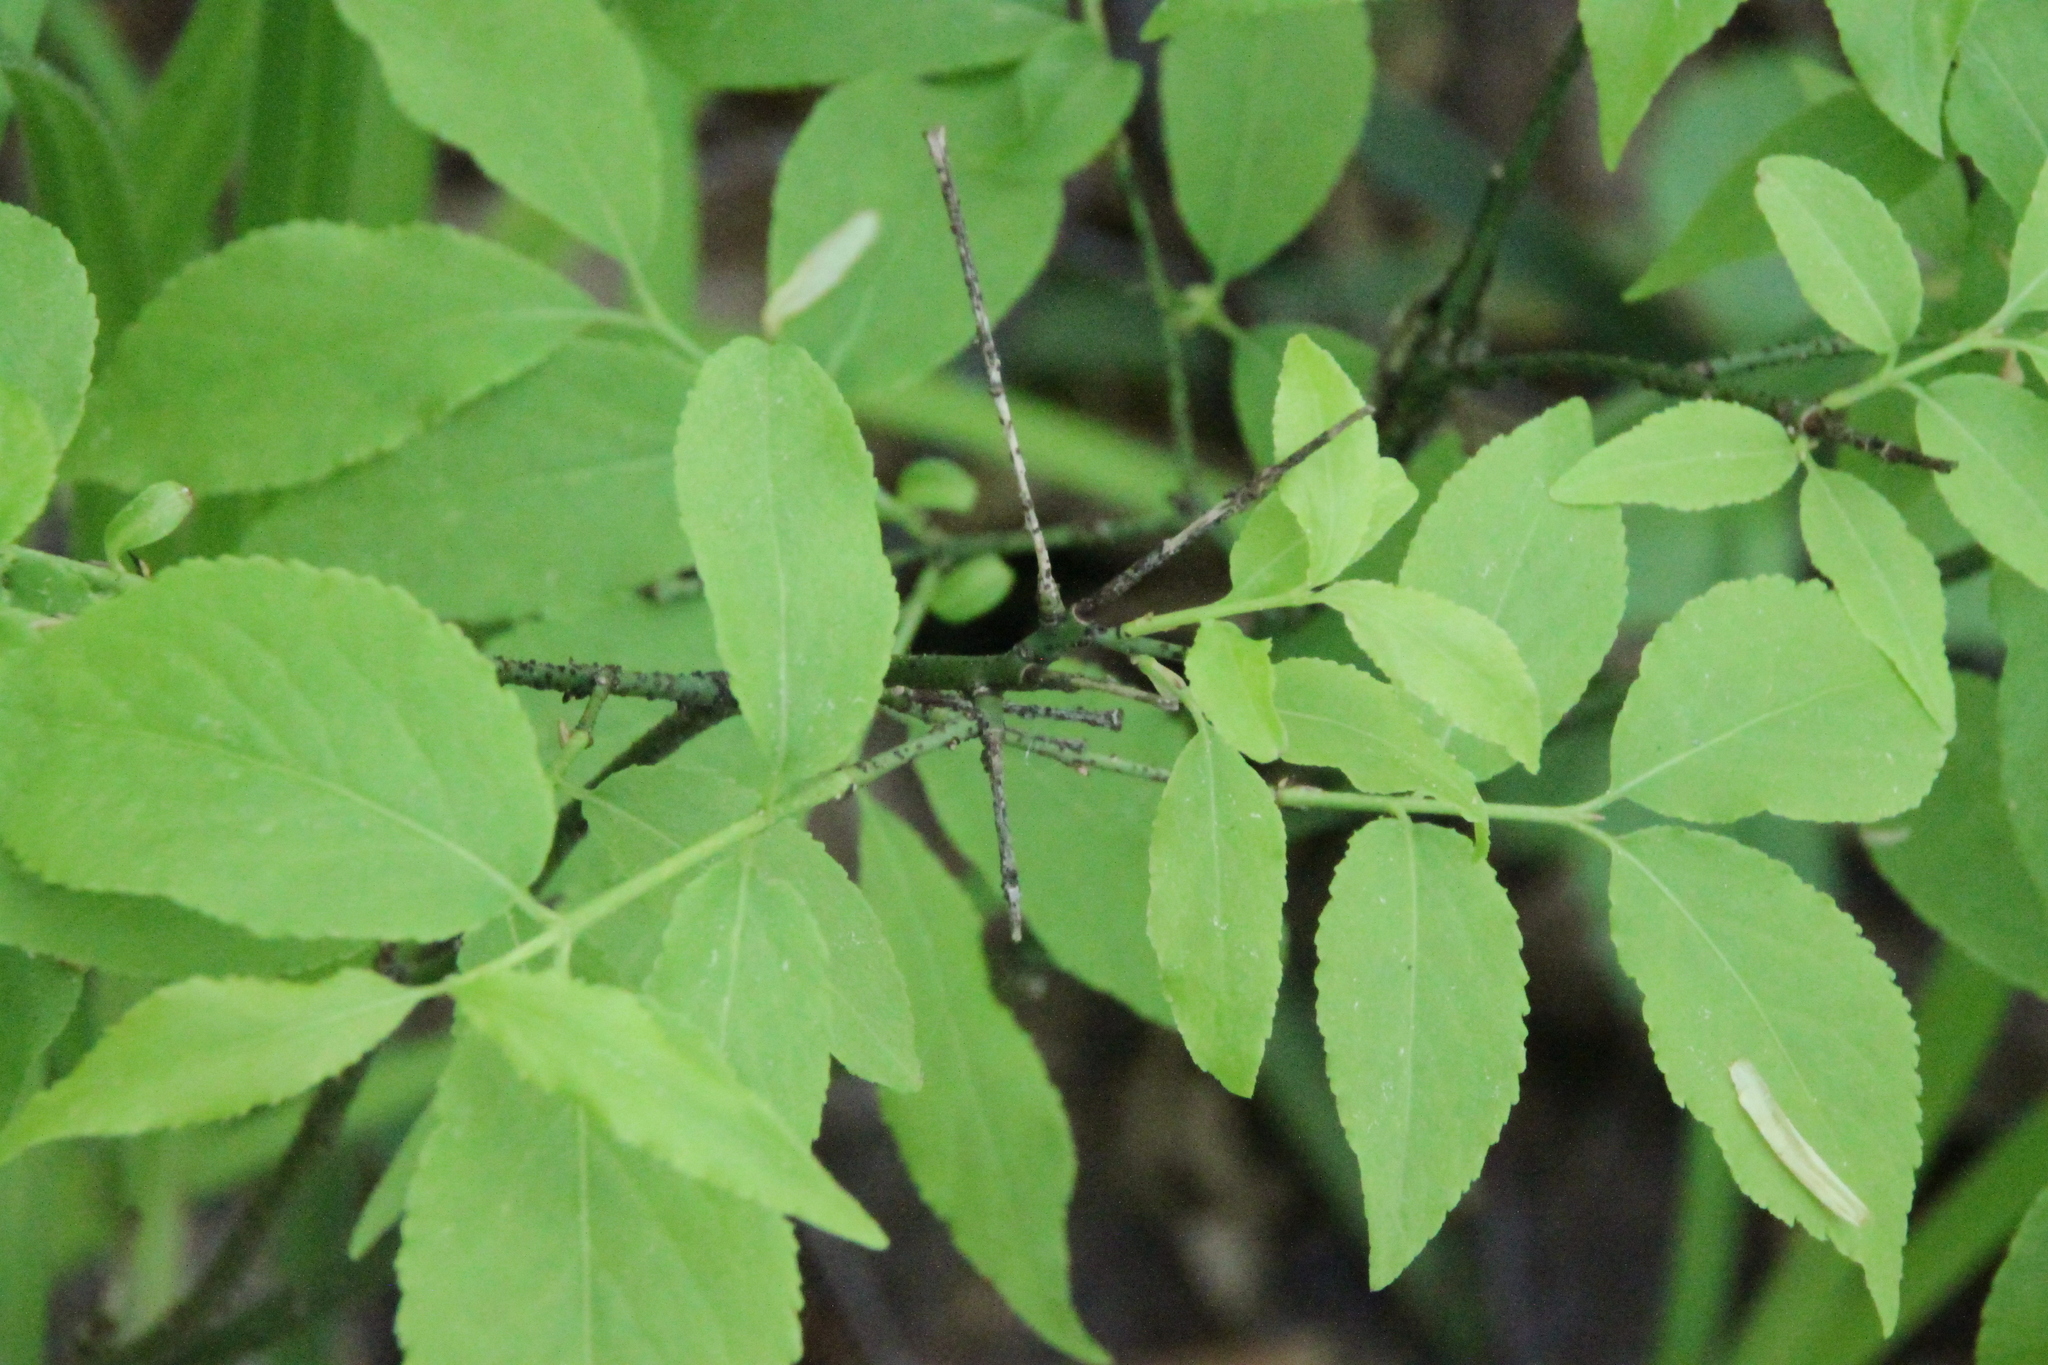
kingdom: Plantae
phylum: Tracheophyta
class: Magnoliopsida
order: Celastrales
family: Celastraceae
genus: Euonymus
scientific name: Euonymus verrucosus
